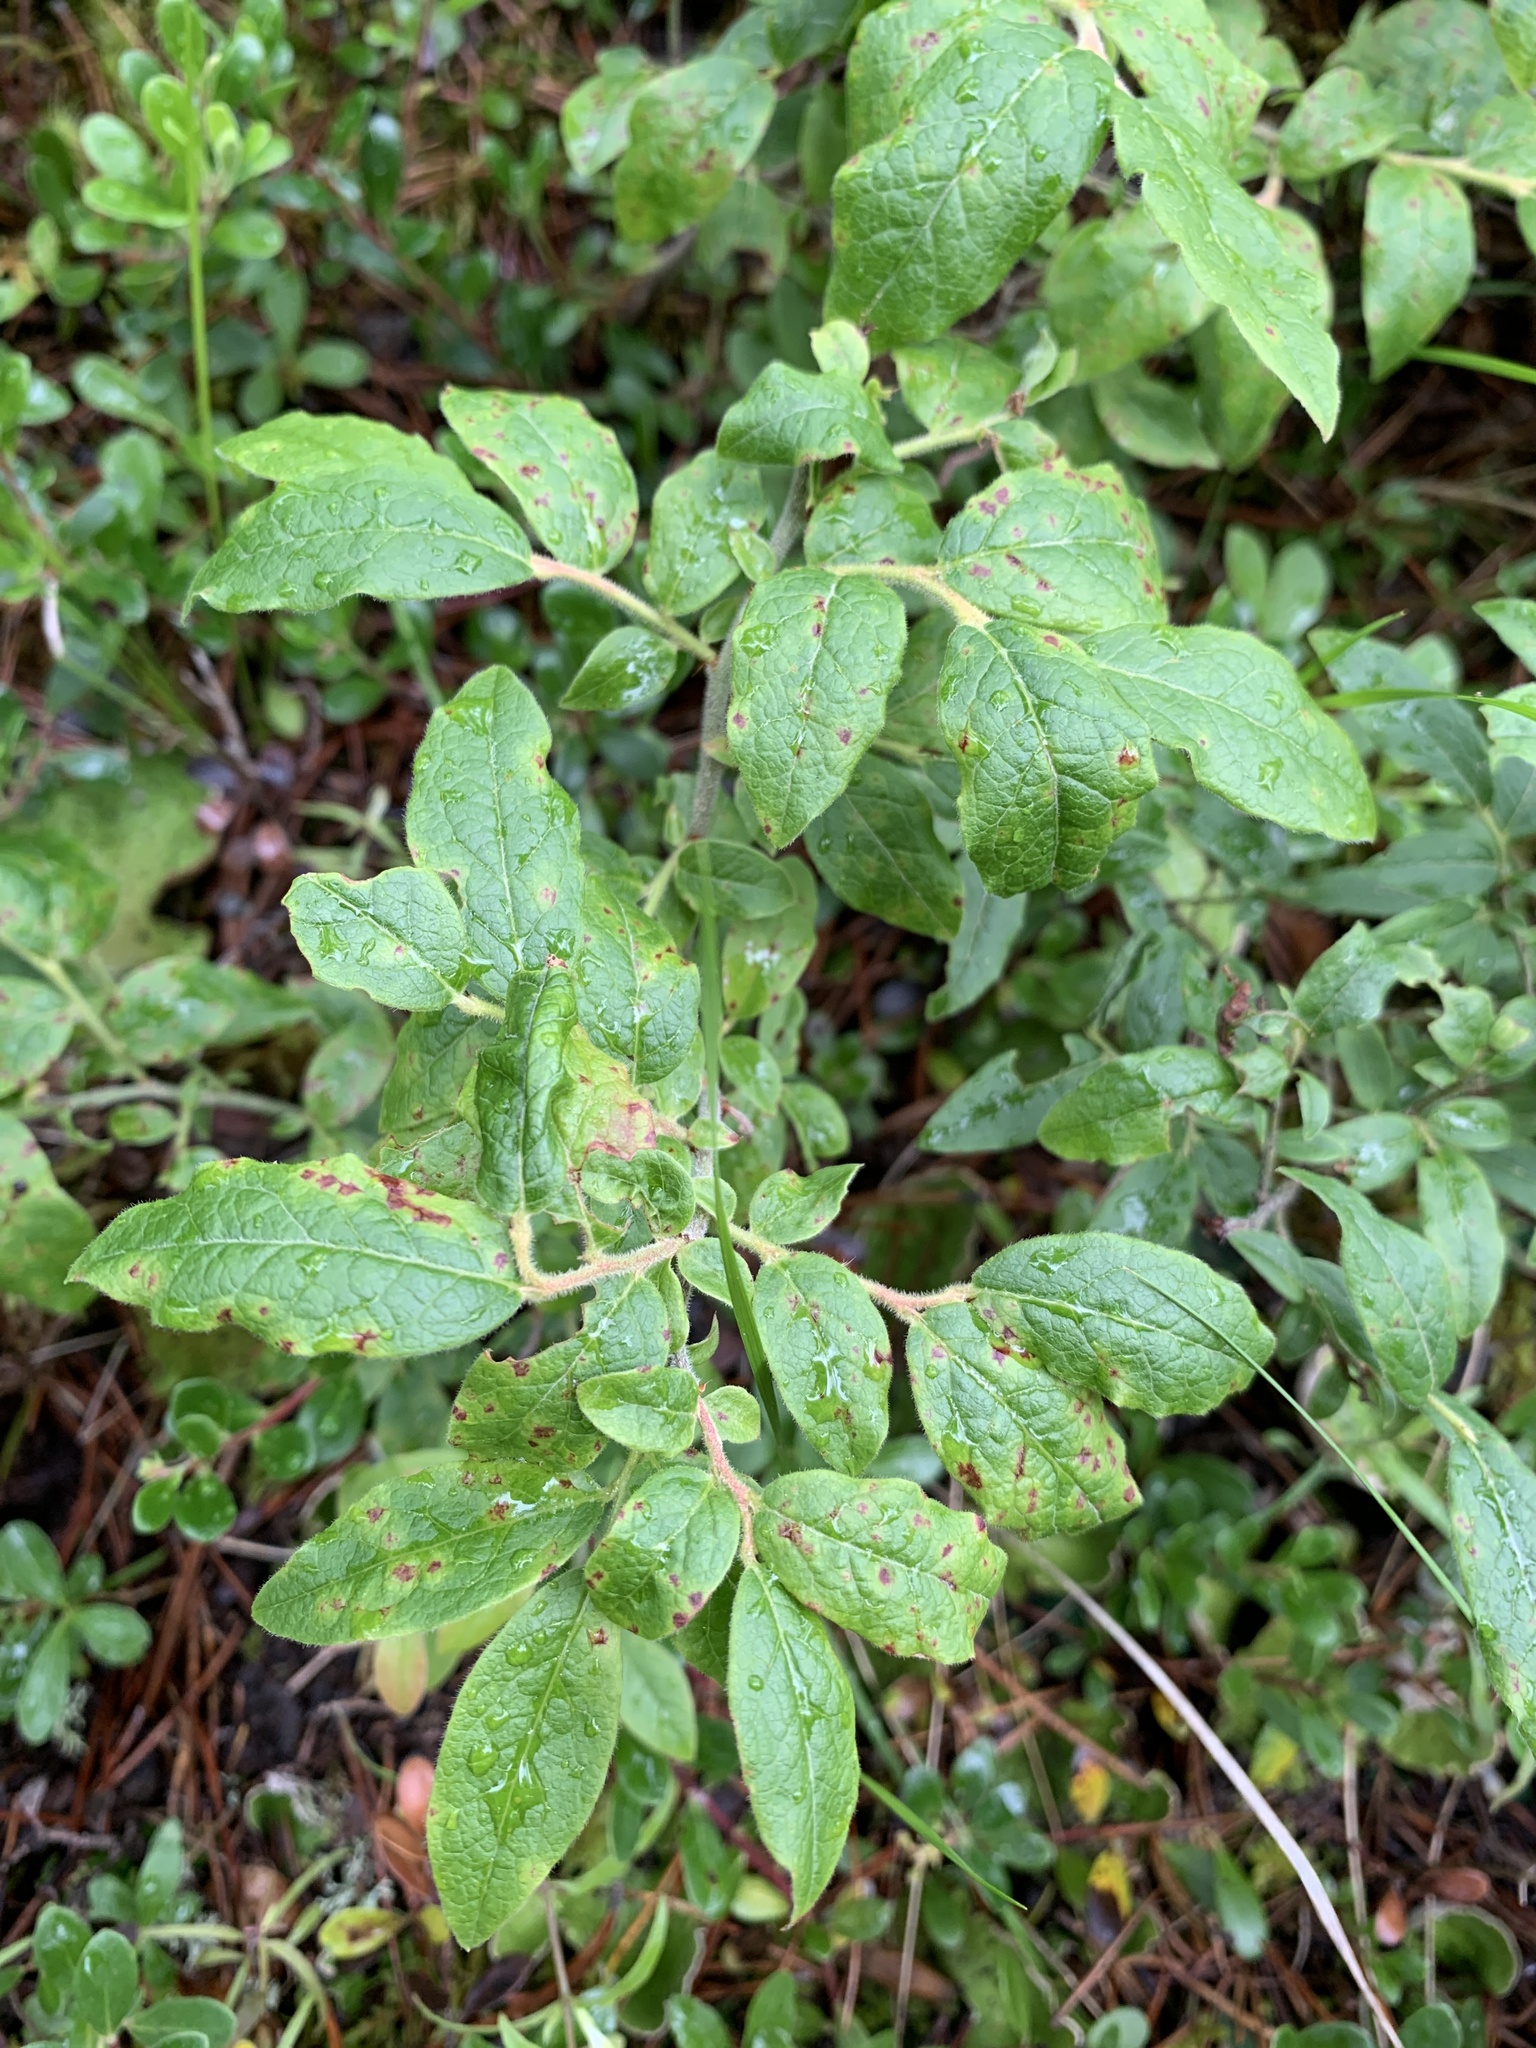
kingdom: Plantae
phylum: Tracheophyta
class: Magnoliopsida
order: Ericales
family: Ericaceae
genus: Vaccinium
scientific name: Vaccinium myrtilloides
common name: Canada blueberry
